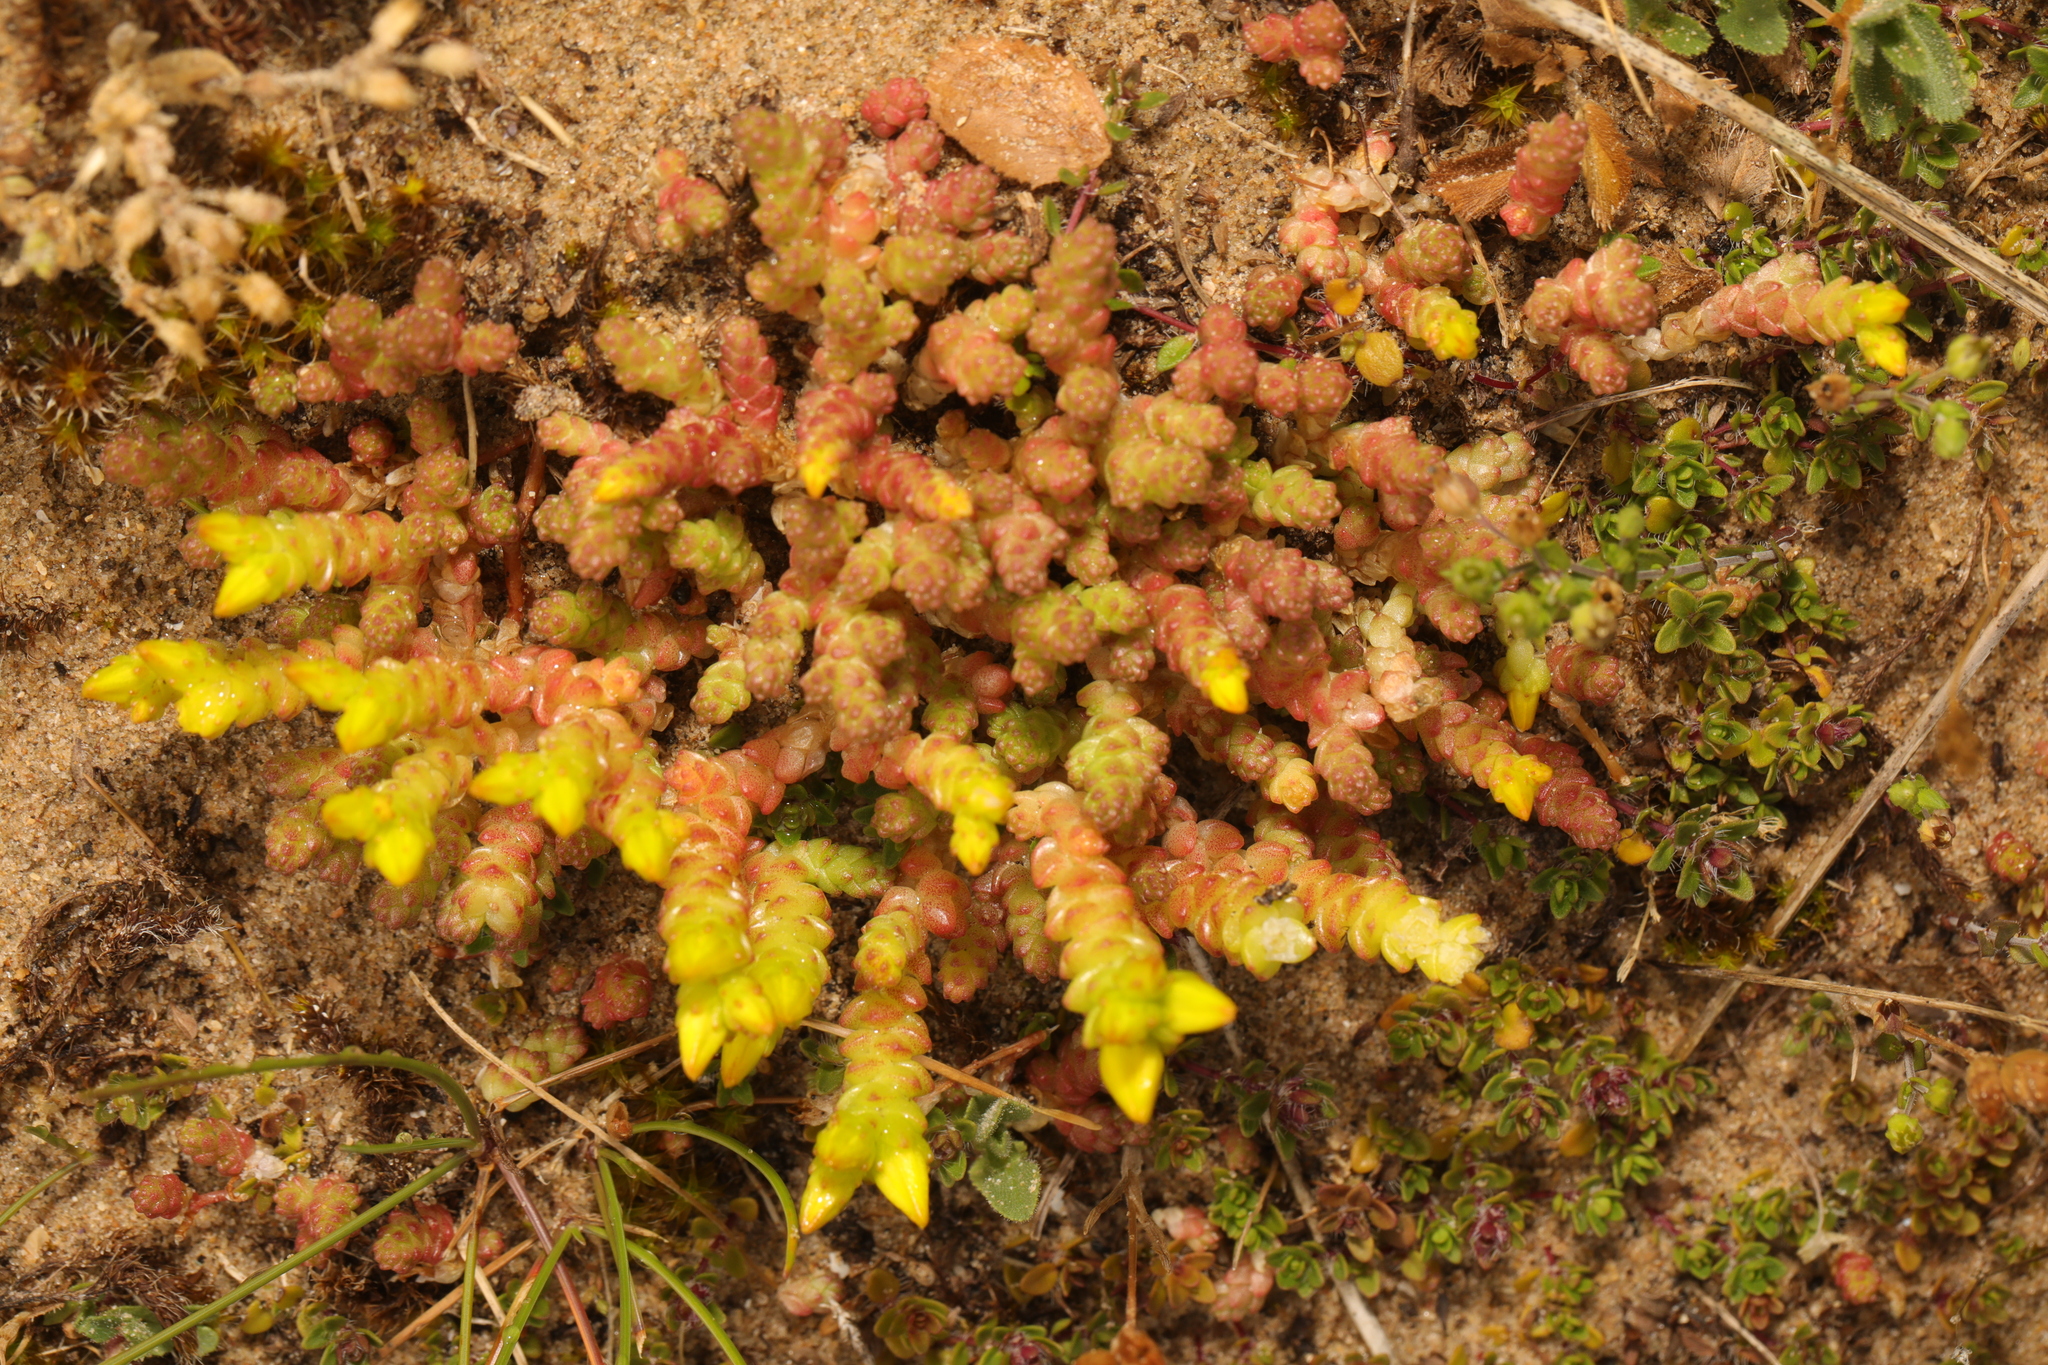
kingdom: Plantae
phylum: Tracheophyta
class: Magnoliopsida
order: Saxifragales
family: Crassulaceae
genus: Sedum
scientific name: Sedum acre
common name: Biting stonecrop
